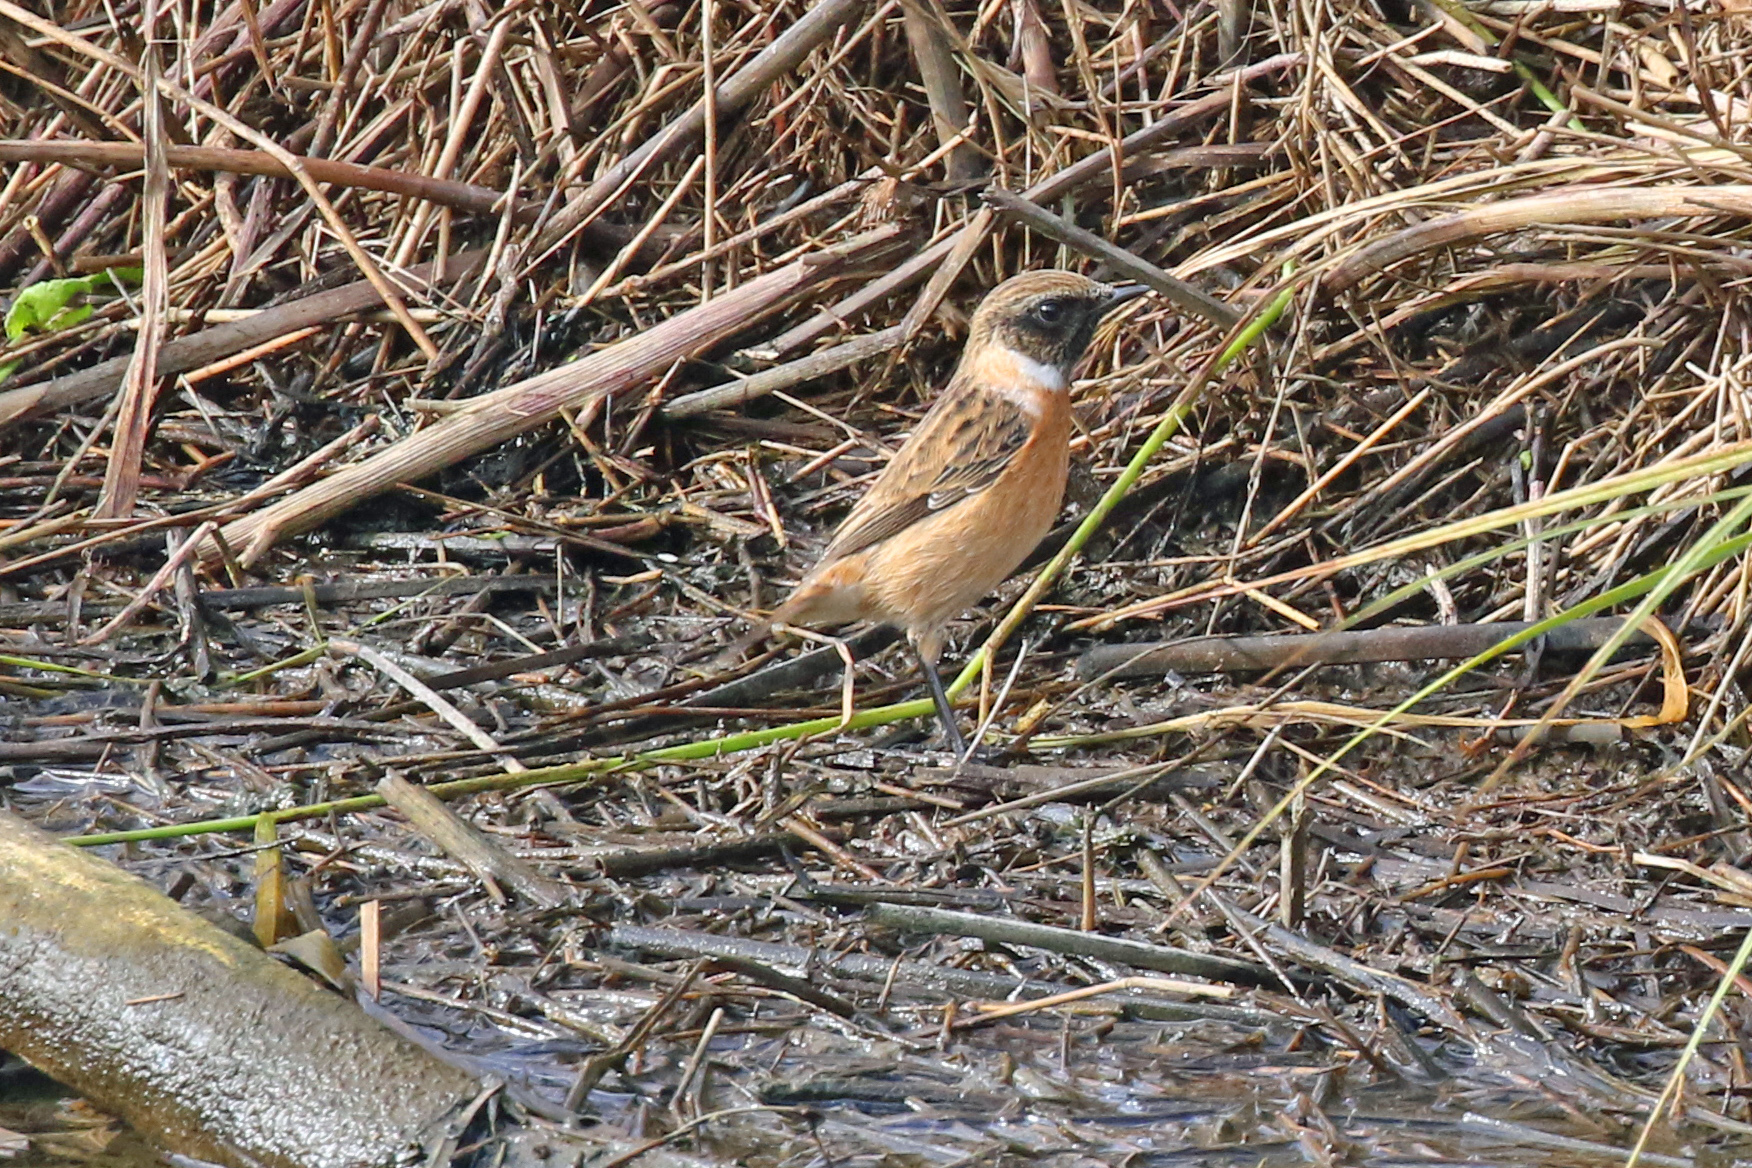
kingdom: Animalia
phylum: Chordata
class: Aves
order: Passeriformes
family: Muscicapidae
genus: Saxicola
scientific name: Saxicola rubicola
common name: European stonechat
